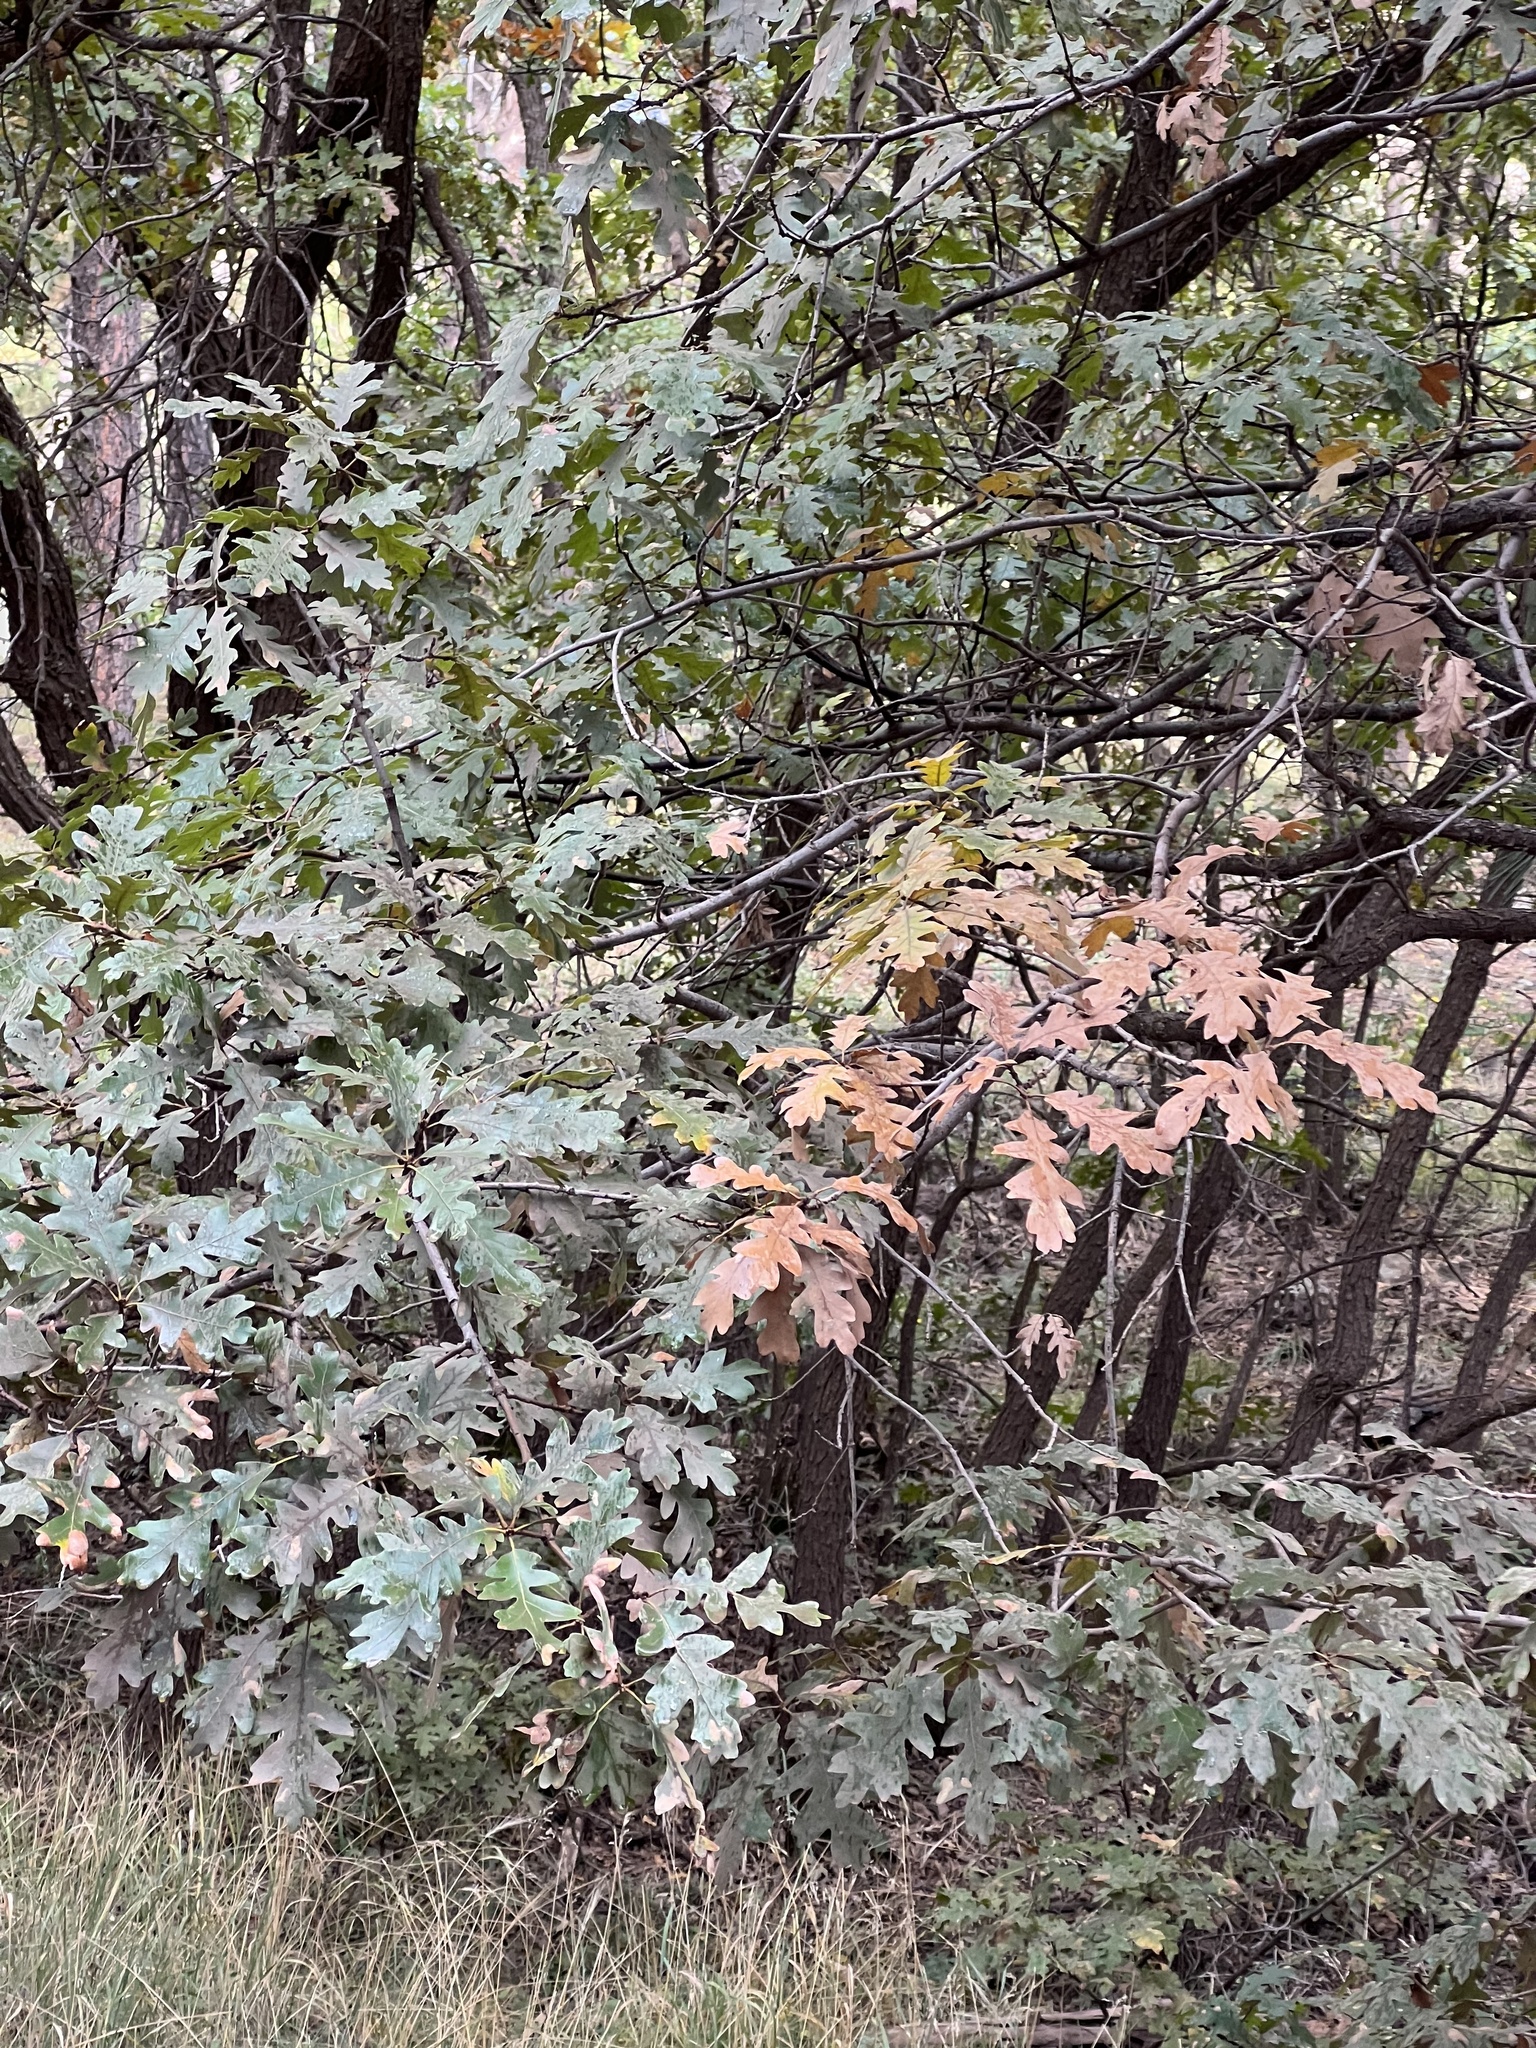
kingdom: Plantae
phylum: Tracheophyta
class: Magnoliopsida
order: Fagales
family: Fagaceae
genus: Quercus
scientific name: Quercus gambelii
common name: Gambel oak
